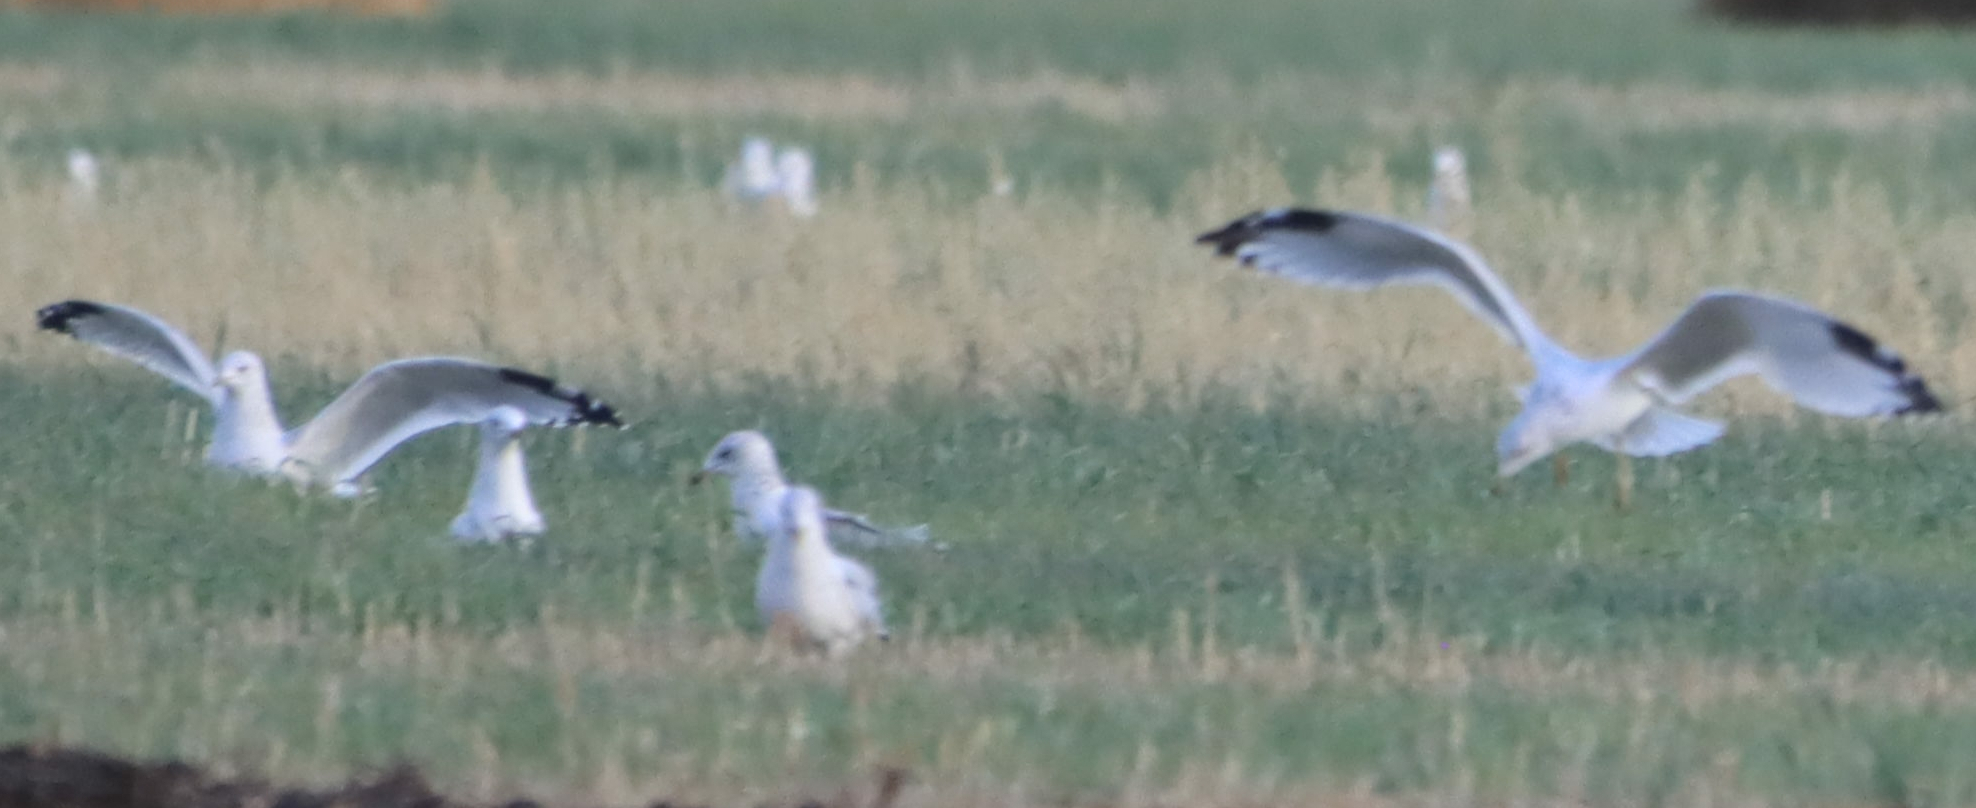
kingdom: Animalia
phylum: Chordata
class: Aves
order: Charadriiformes
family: Laridae
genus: Larus
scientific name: Larus delawarensis
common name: Ring-billed gull
